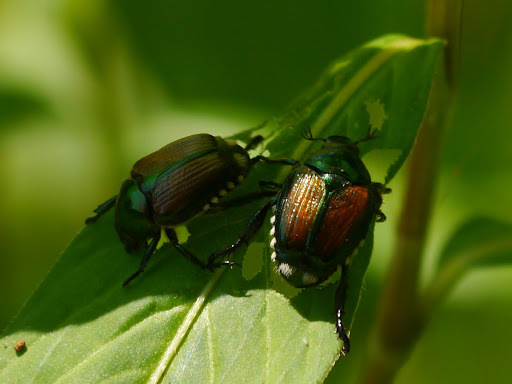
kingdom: Animalia
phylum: Arthropoda
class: Insecta
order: Coleoptera
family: Scarabaeidae
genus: Popillia
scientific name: Popillia japonica
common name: Japanese beetle
